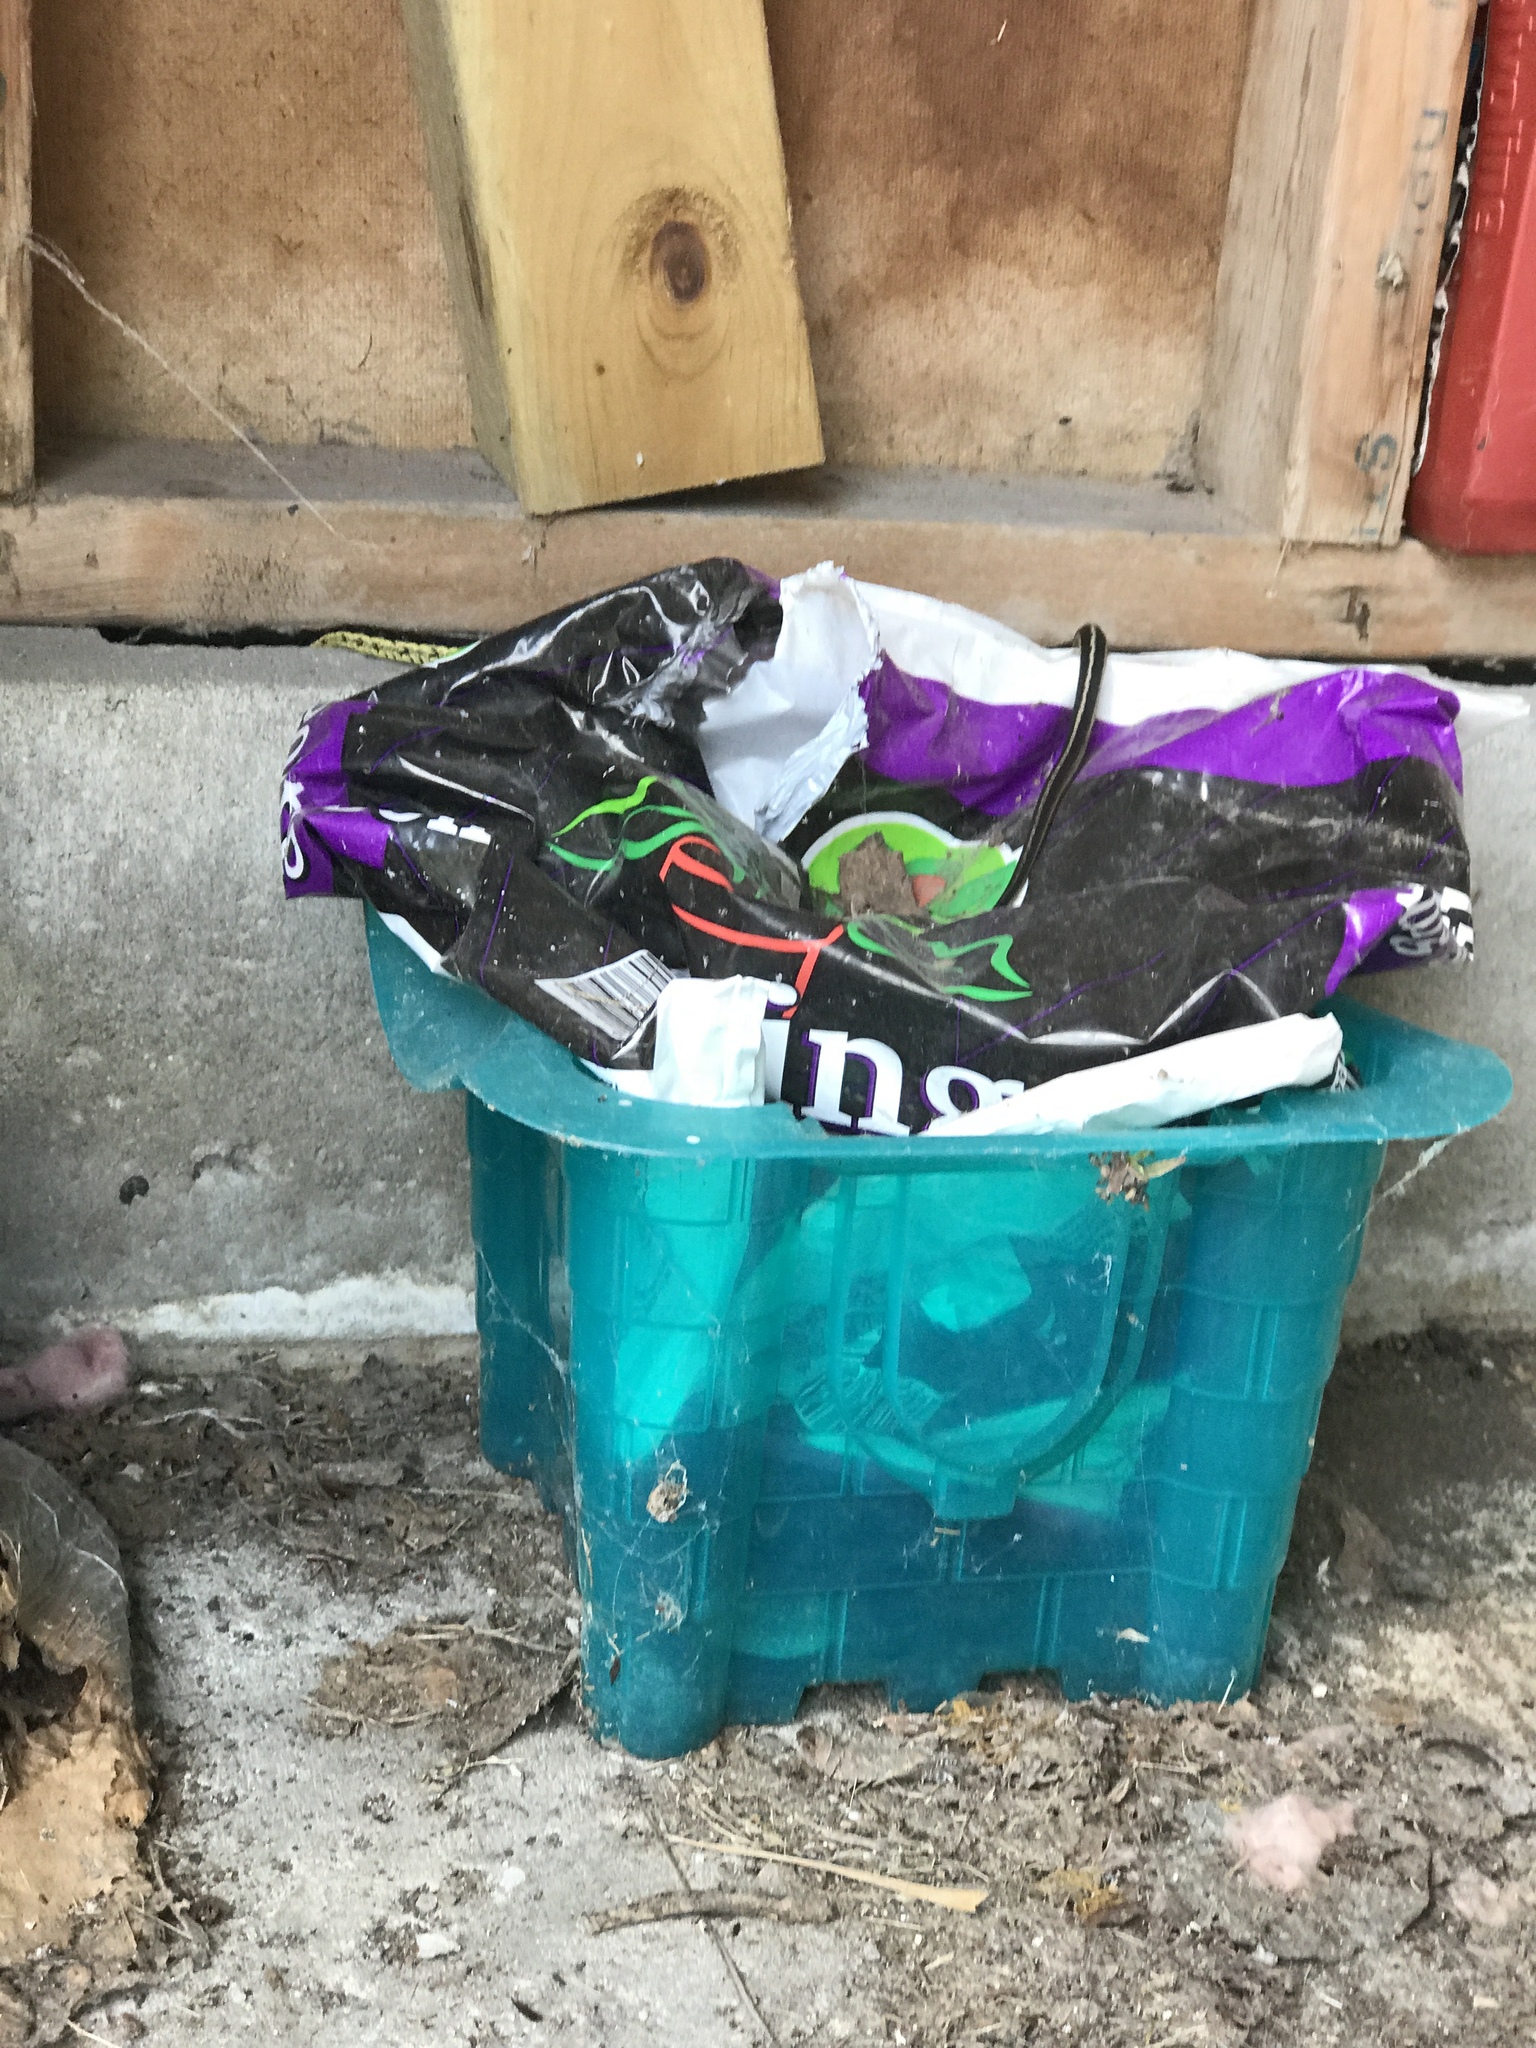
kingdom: Animalia
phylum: Chordata
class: Squamata
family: Colubridae
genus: Thamnophis
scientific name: Thamnophis sirtalis
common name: Common garter snake
